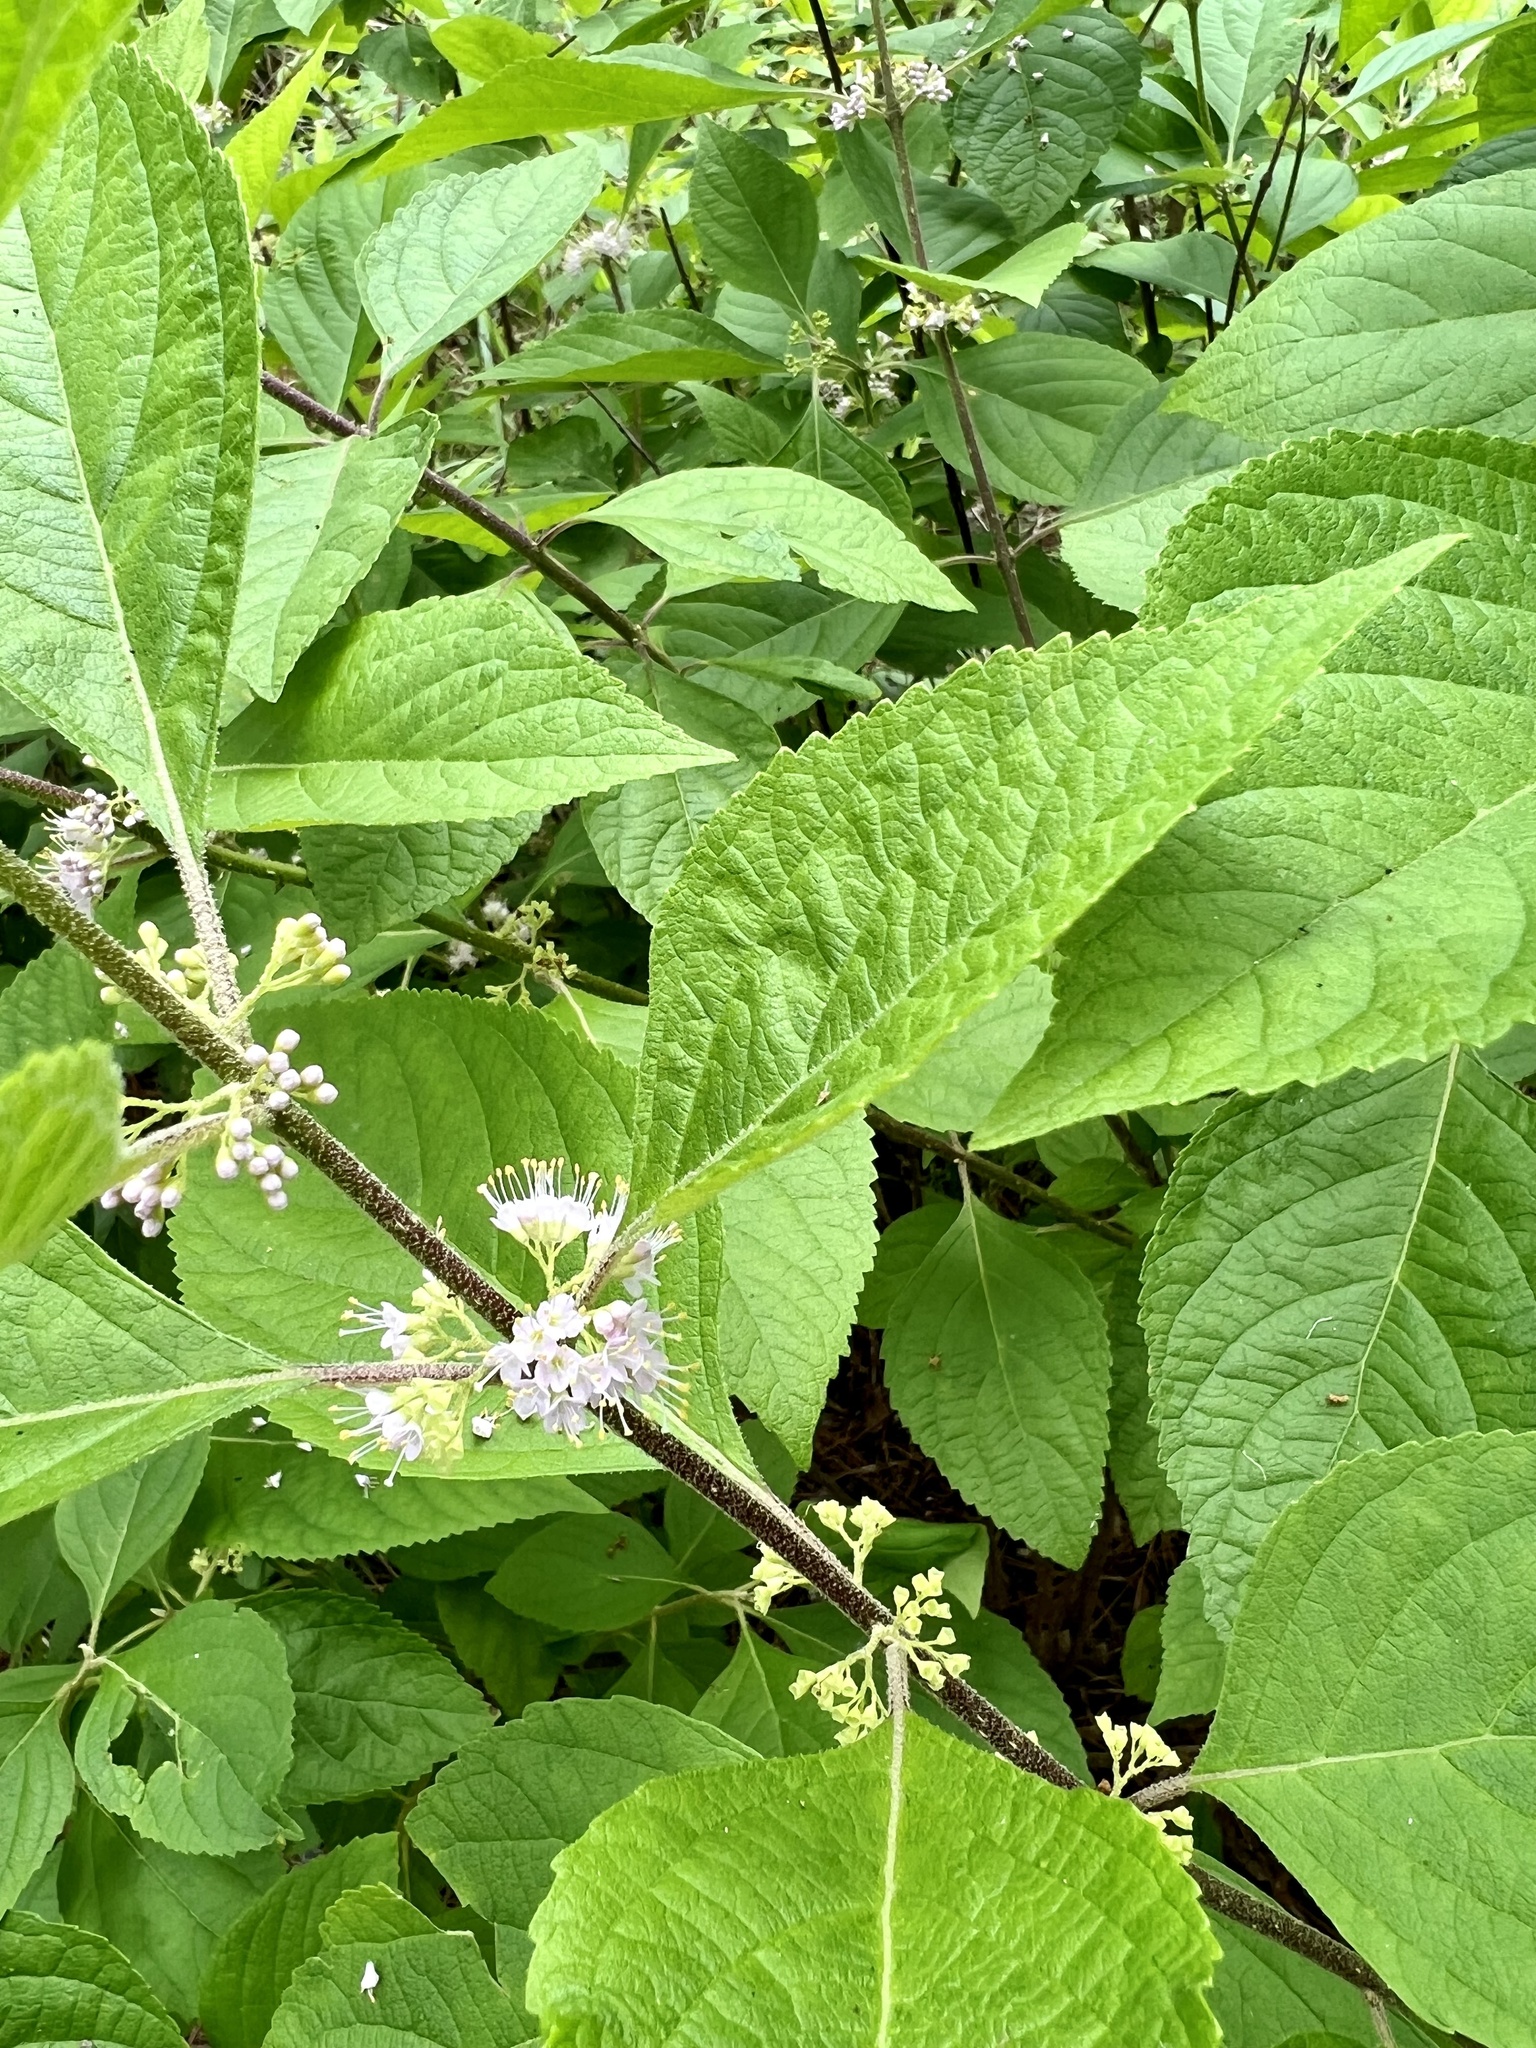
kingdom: Plantae
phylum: Tracheophyta
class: Magnoliopsida
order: Lamiales
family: Lamiaceae
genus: Callicarpa
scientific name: Callicarpa americana
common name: American beautyberry
